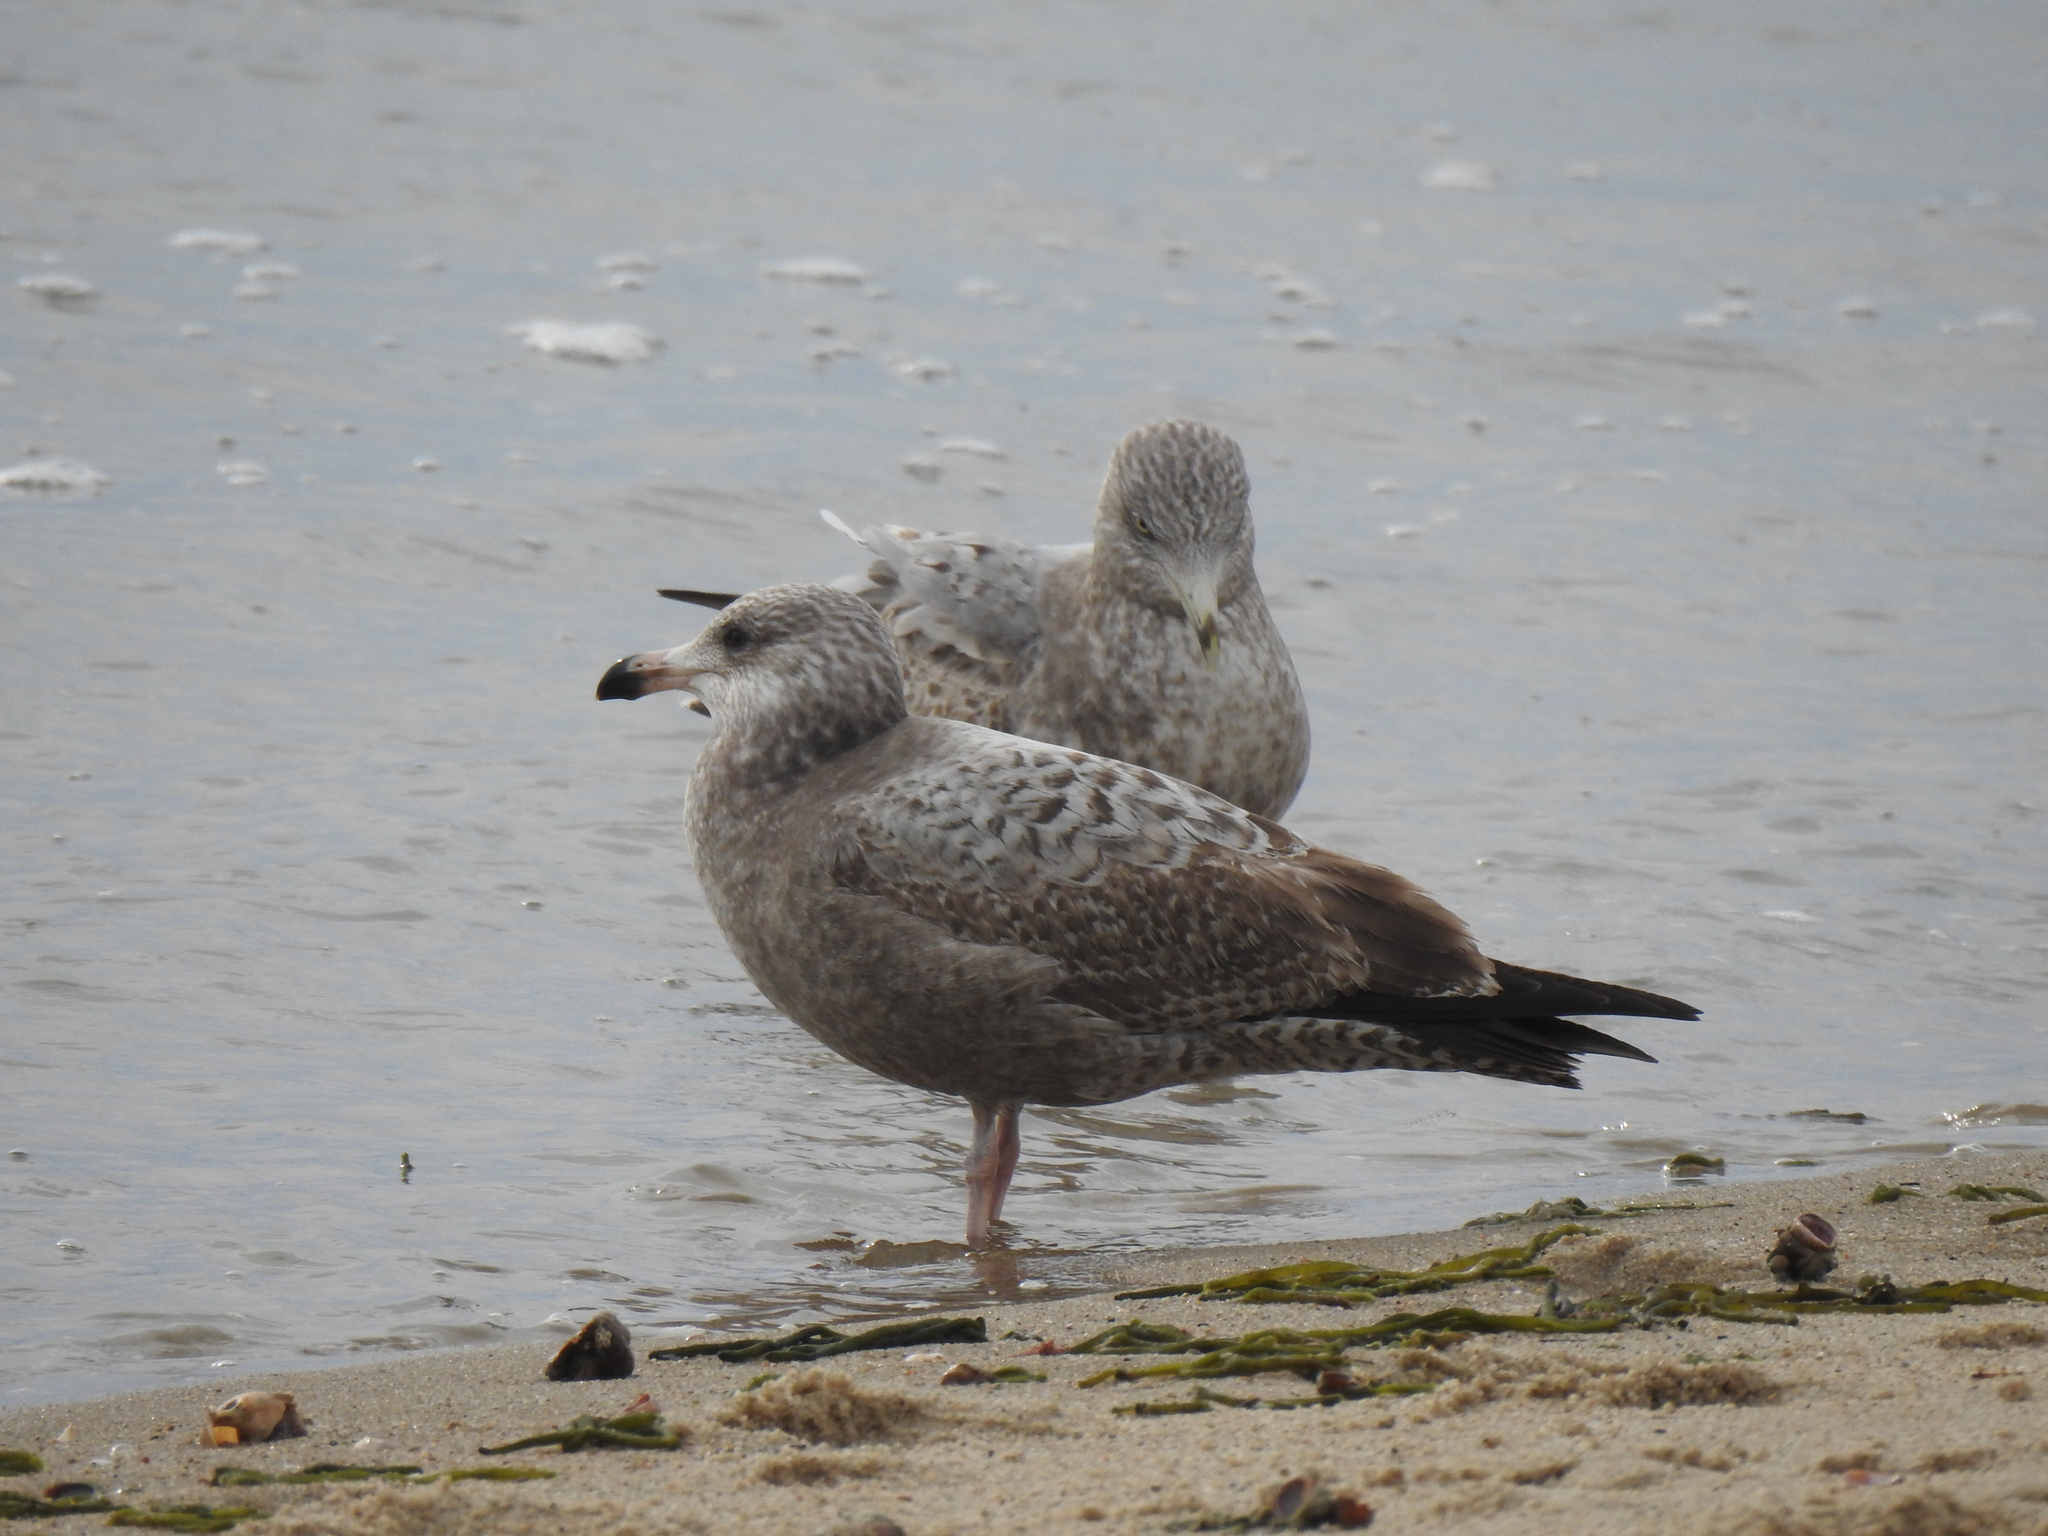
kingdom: Animalia
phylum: Chordata
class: Aves
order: Charadriiformes
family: Laridae
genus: Larus
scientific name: Larus argentatus
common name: Herring gull
